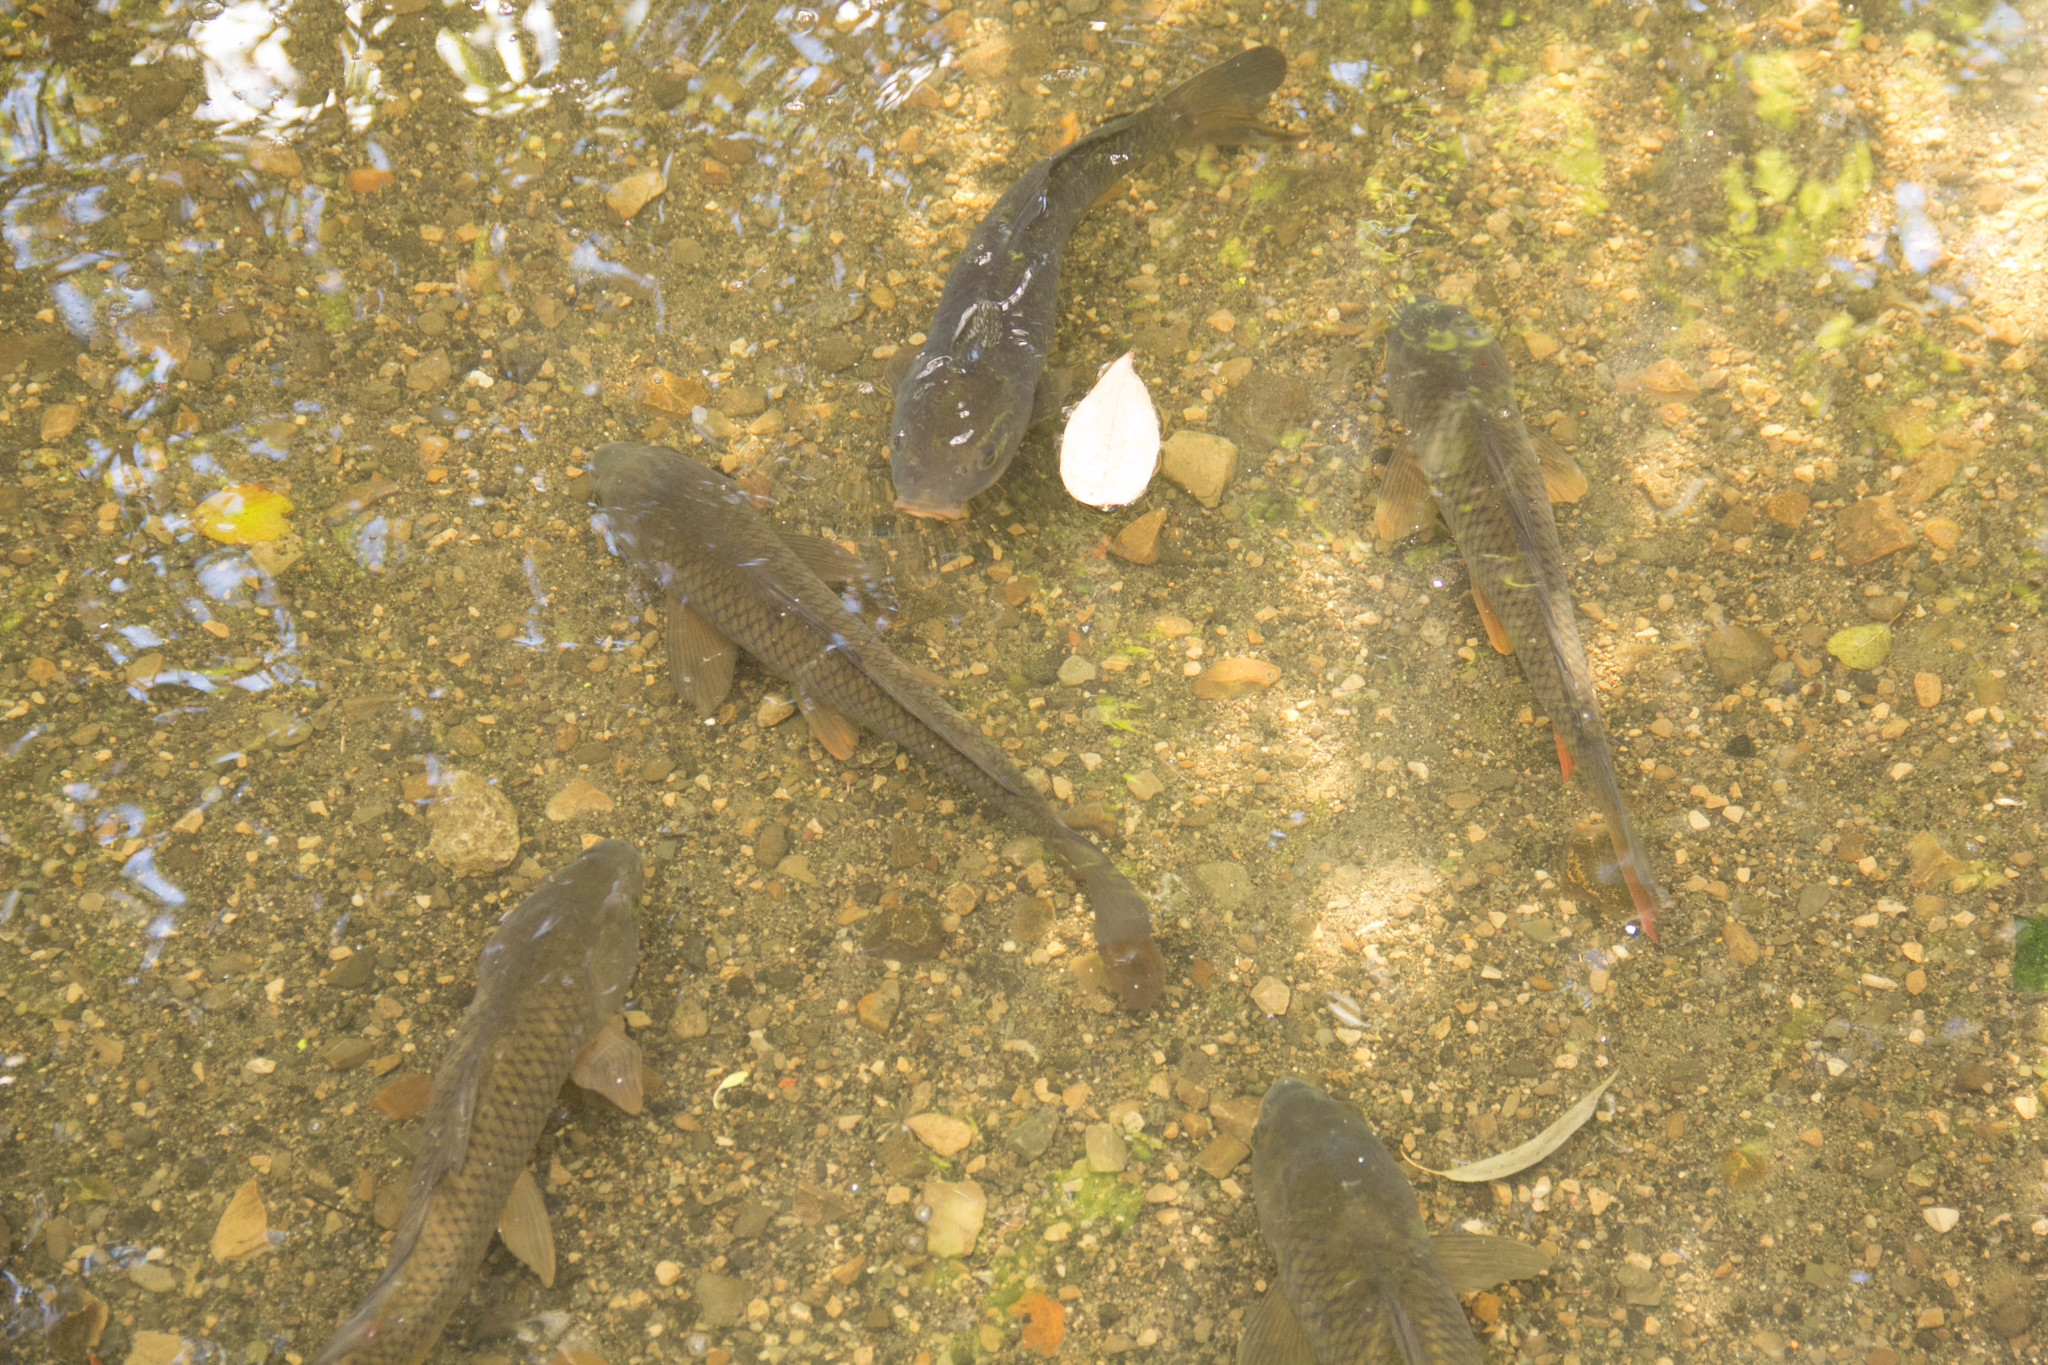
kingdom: Animalia
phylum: Chordata
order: Cypriniformes
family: Cyprinidae
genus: Cyprinus
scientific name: Cyprinus carpio
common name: Common carp
